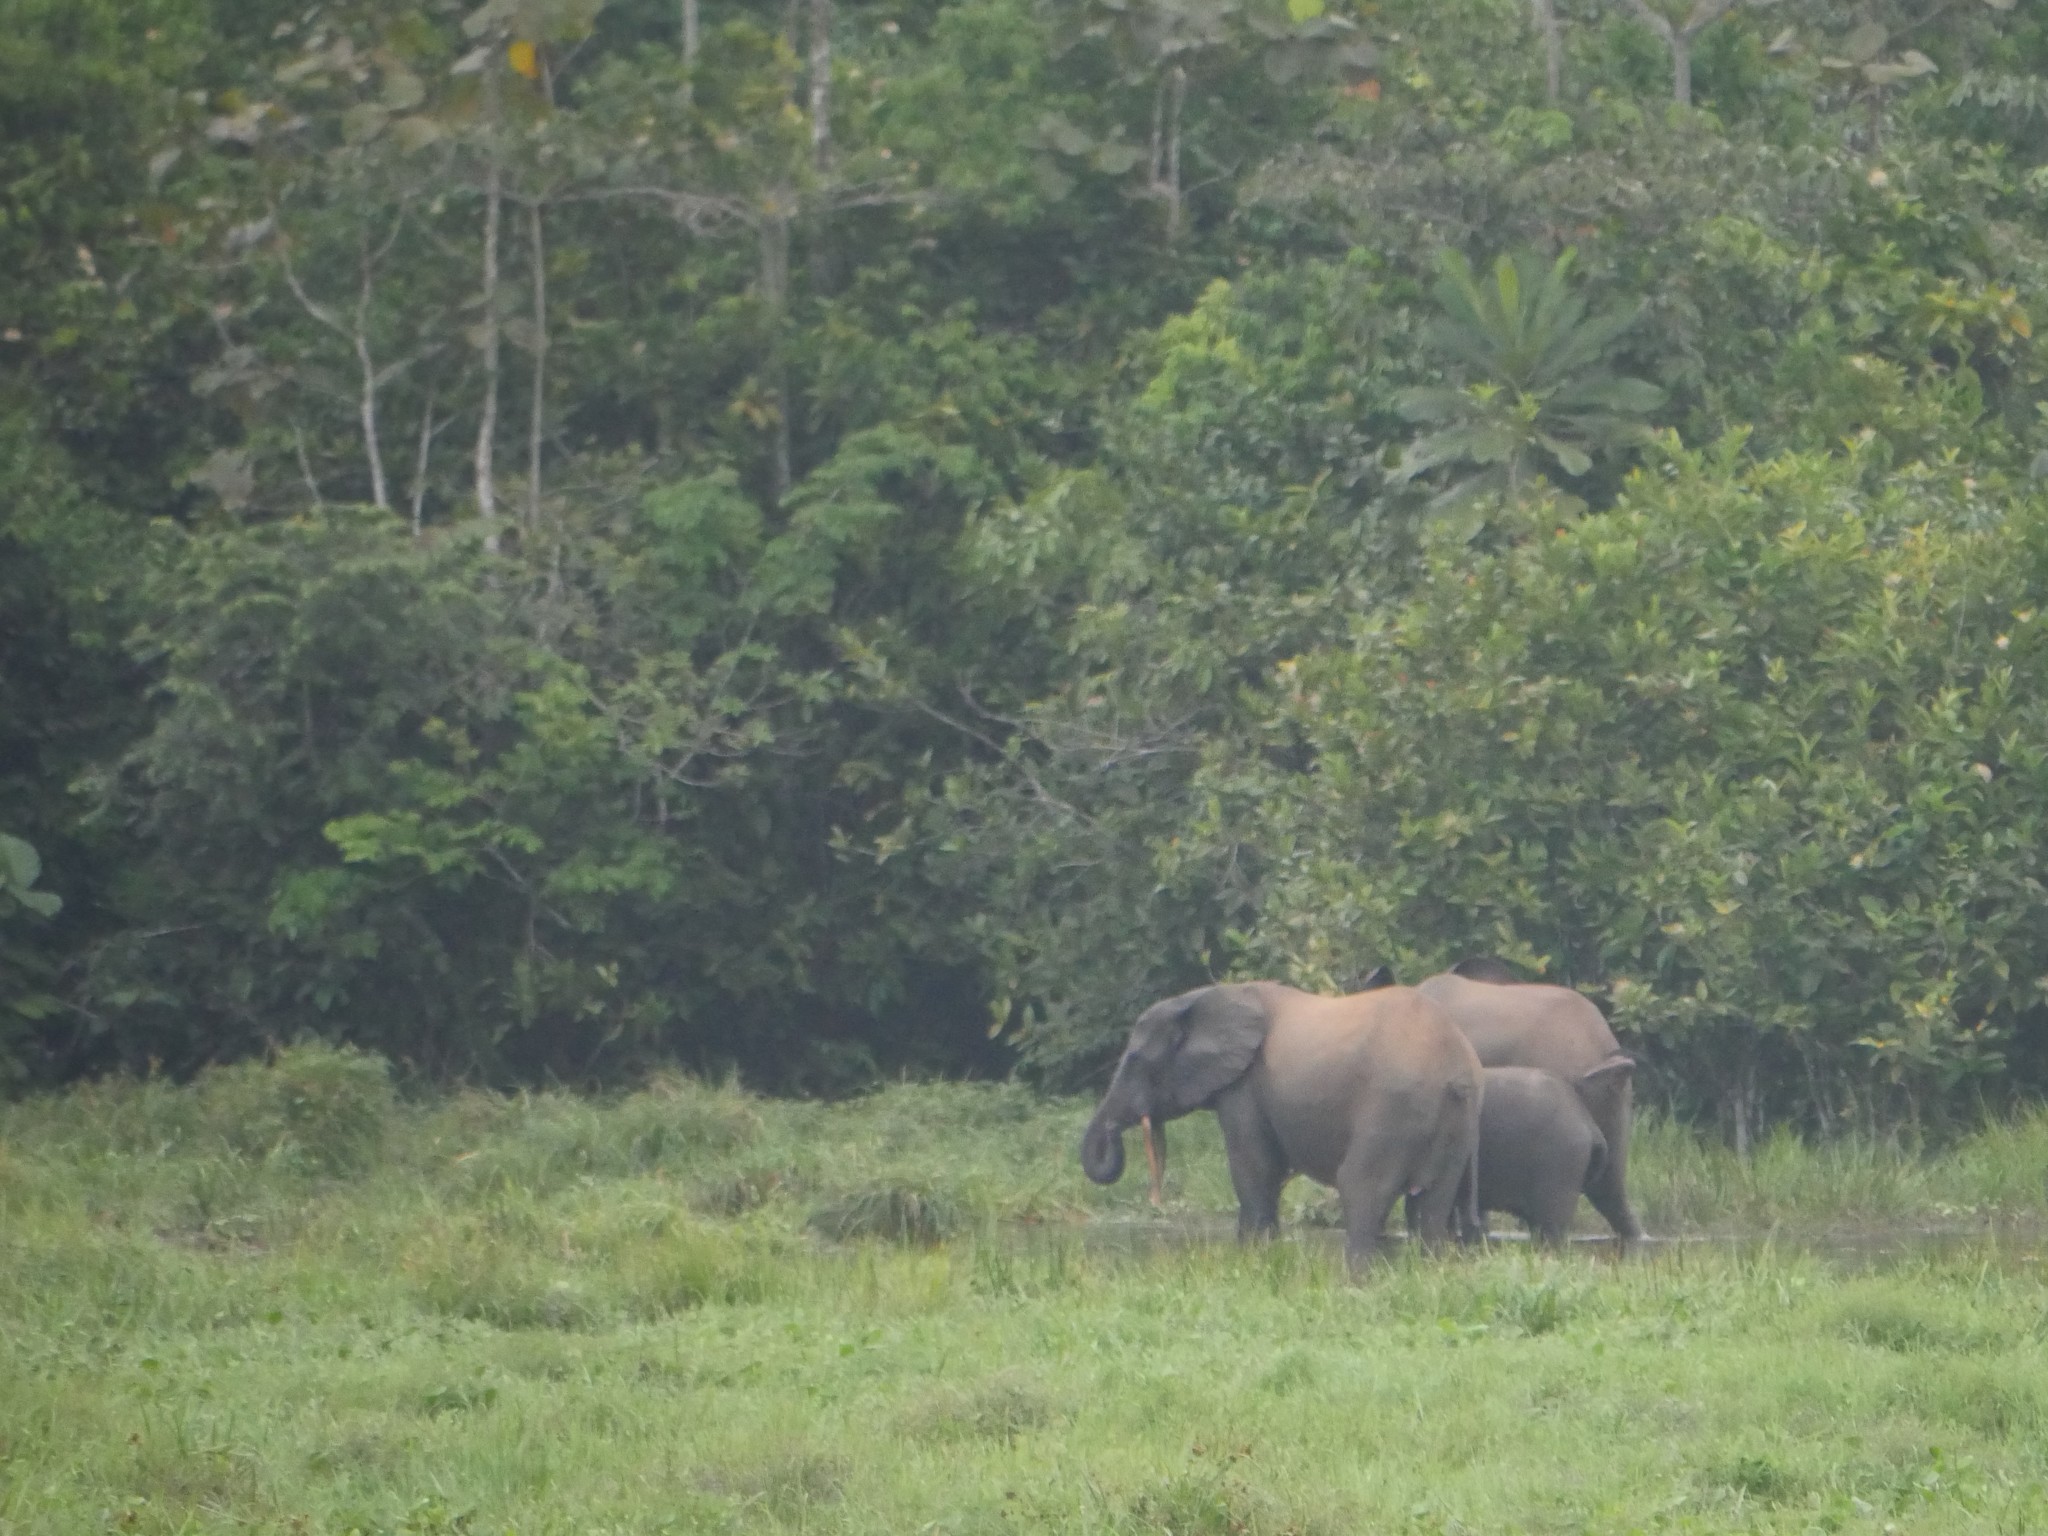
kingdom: Animalia
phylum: Chordata
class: Mammalia
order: Proboscidea
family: Elephantidae
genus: Loxodonta
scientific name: Loxodonta cyclotis
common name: African forest elephant
